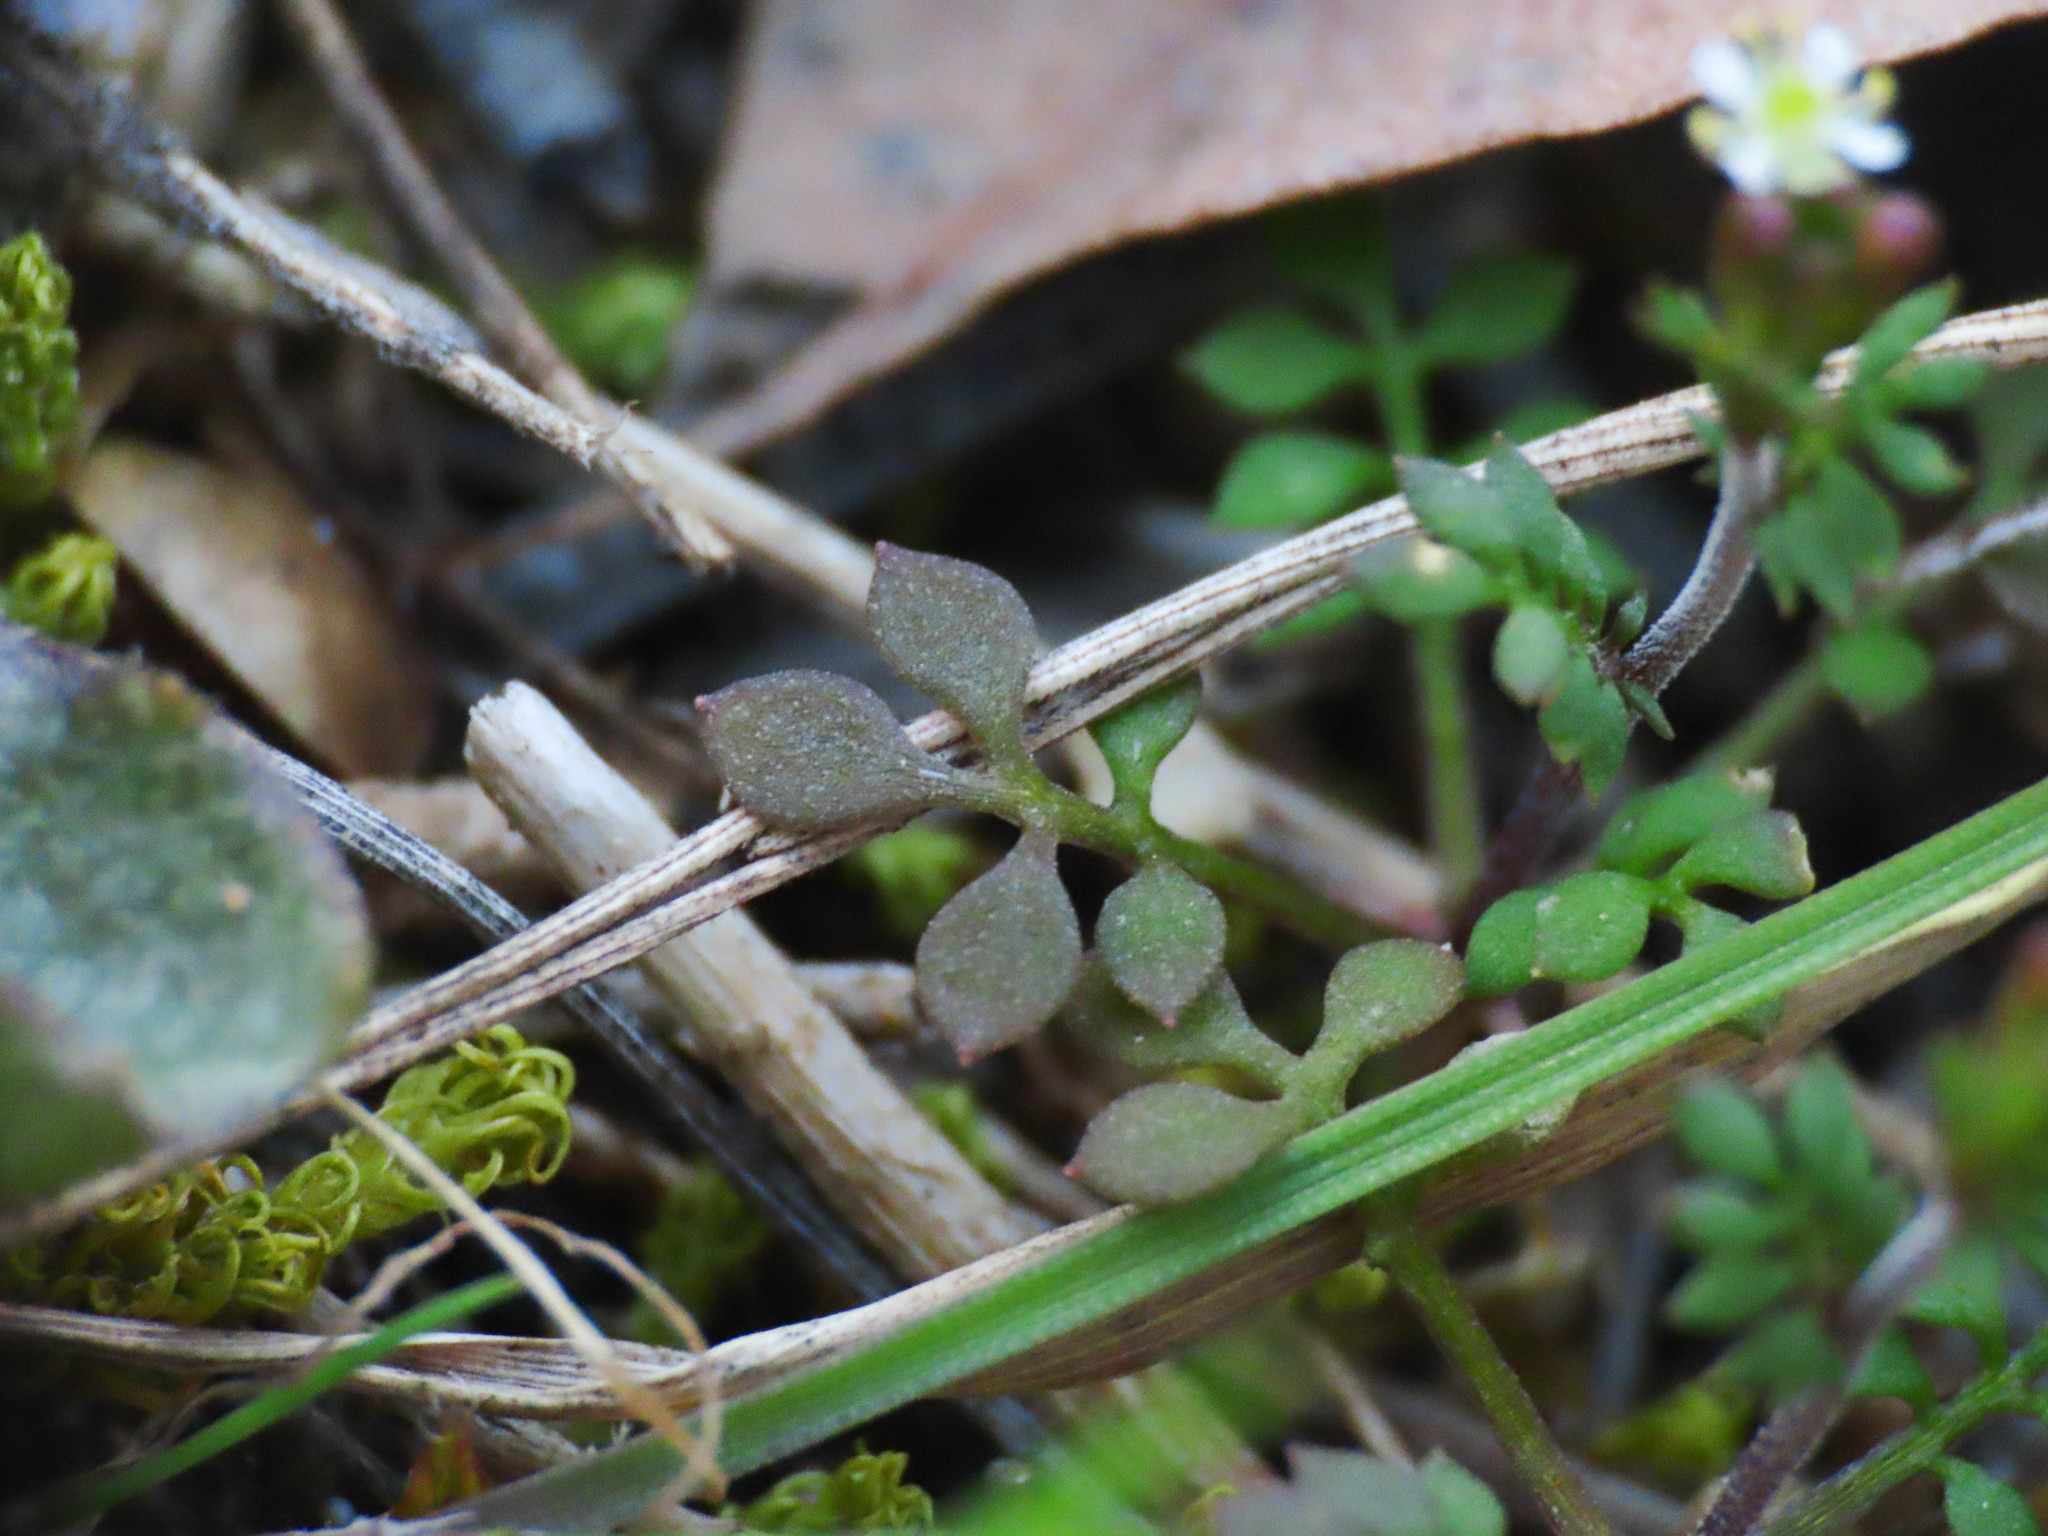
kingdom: Plantae
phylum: Tracheophyta
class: Magnoliopsida
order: Brassicales
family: Brassicaceae
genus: Hornungia
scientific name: Hornungia petraea
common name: Hutchinsia
